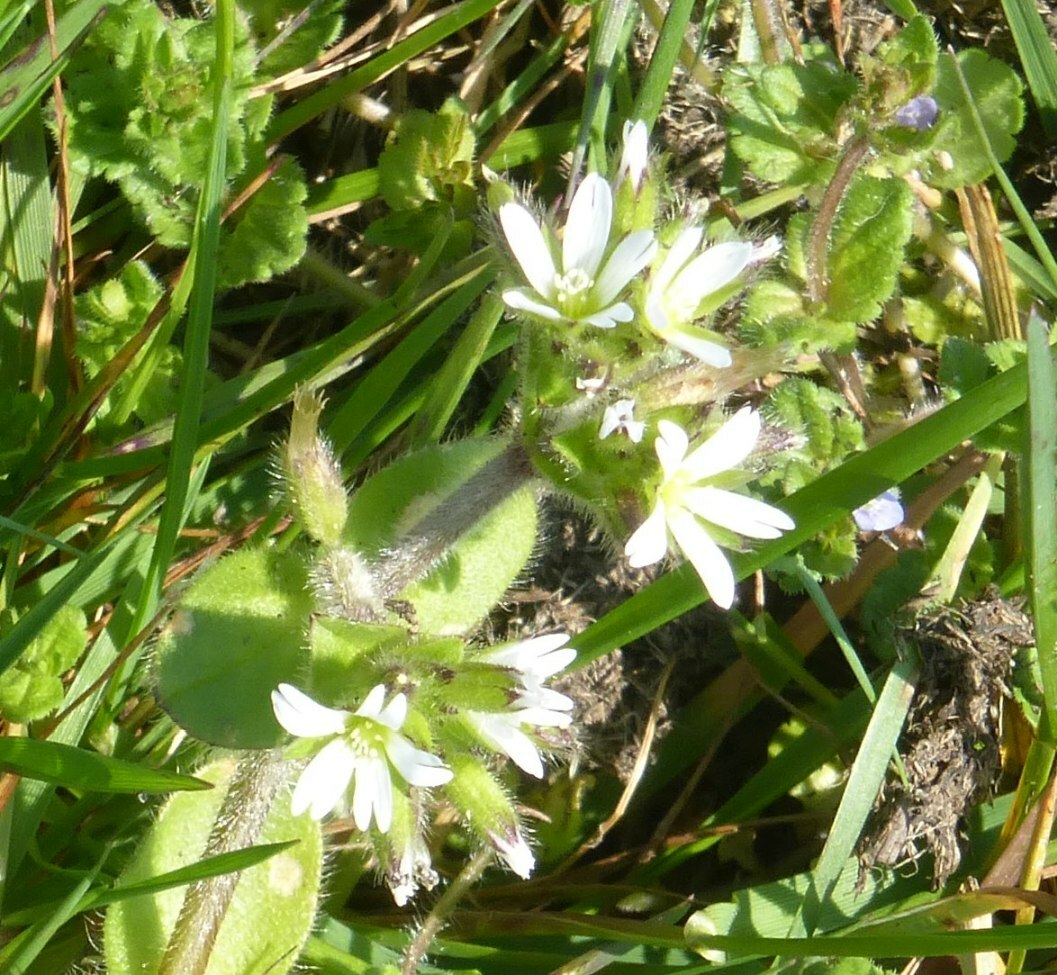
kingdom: Plantae
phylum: Tracheophyta
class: Magnoliopsida
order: Caryophyllales
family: Caryophyllaceae
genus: Cerastium
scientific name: Cerastium glomeratum
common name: Sticky chickweed
